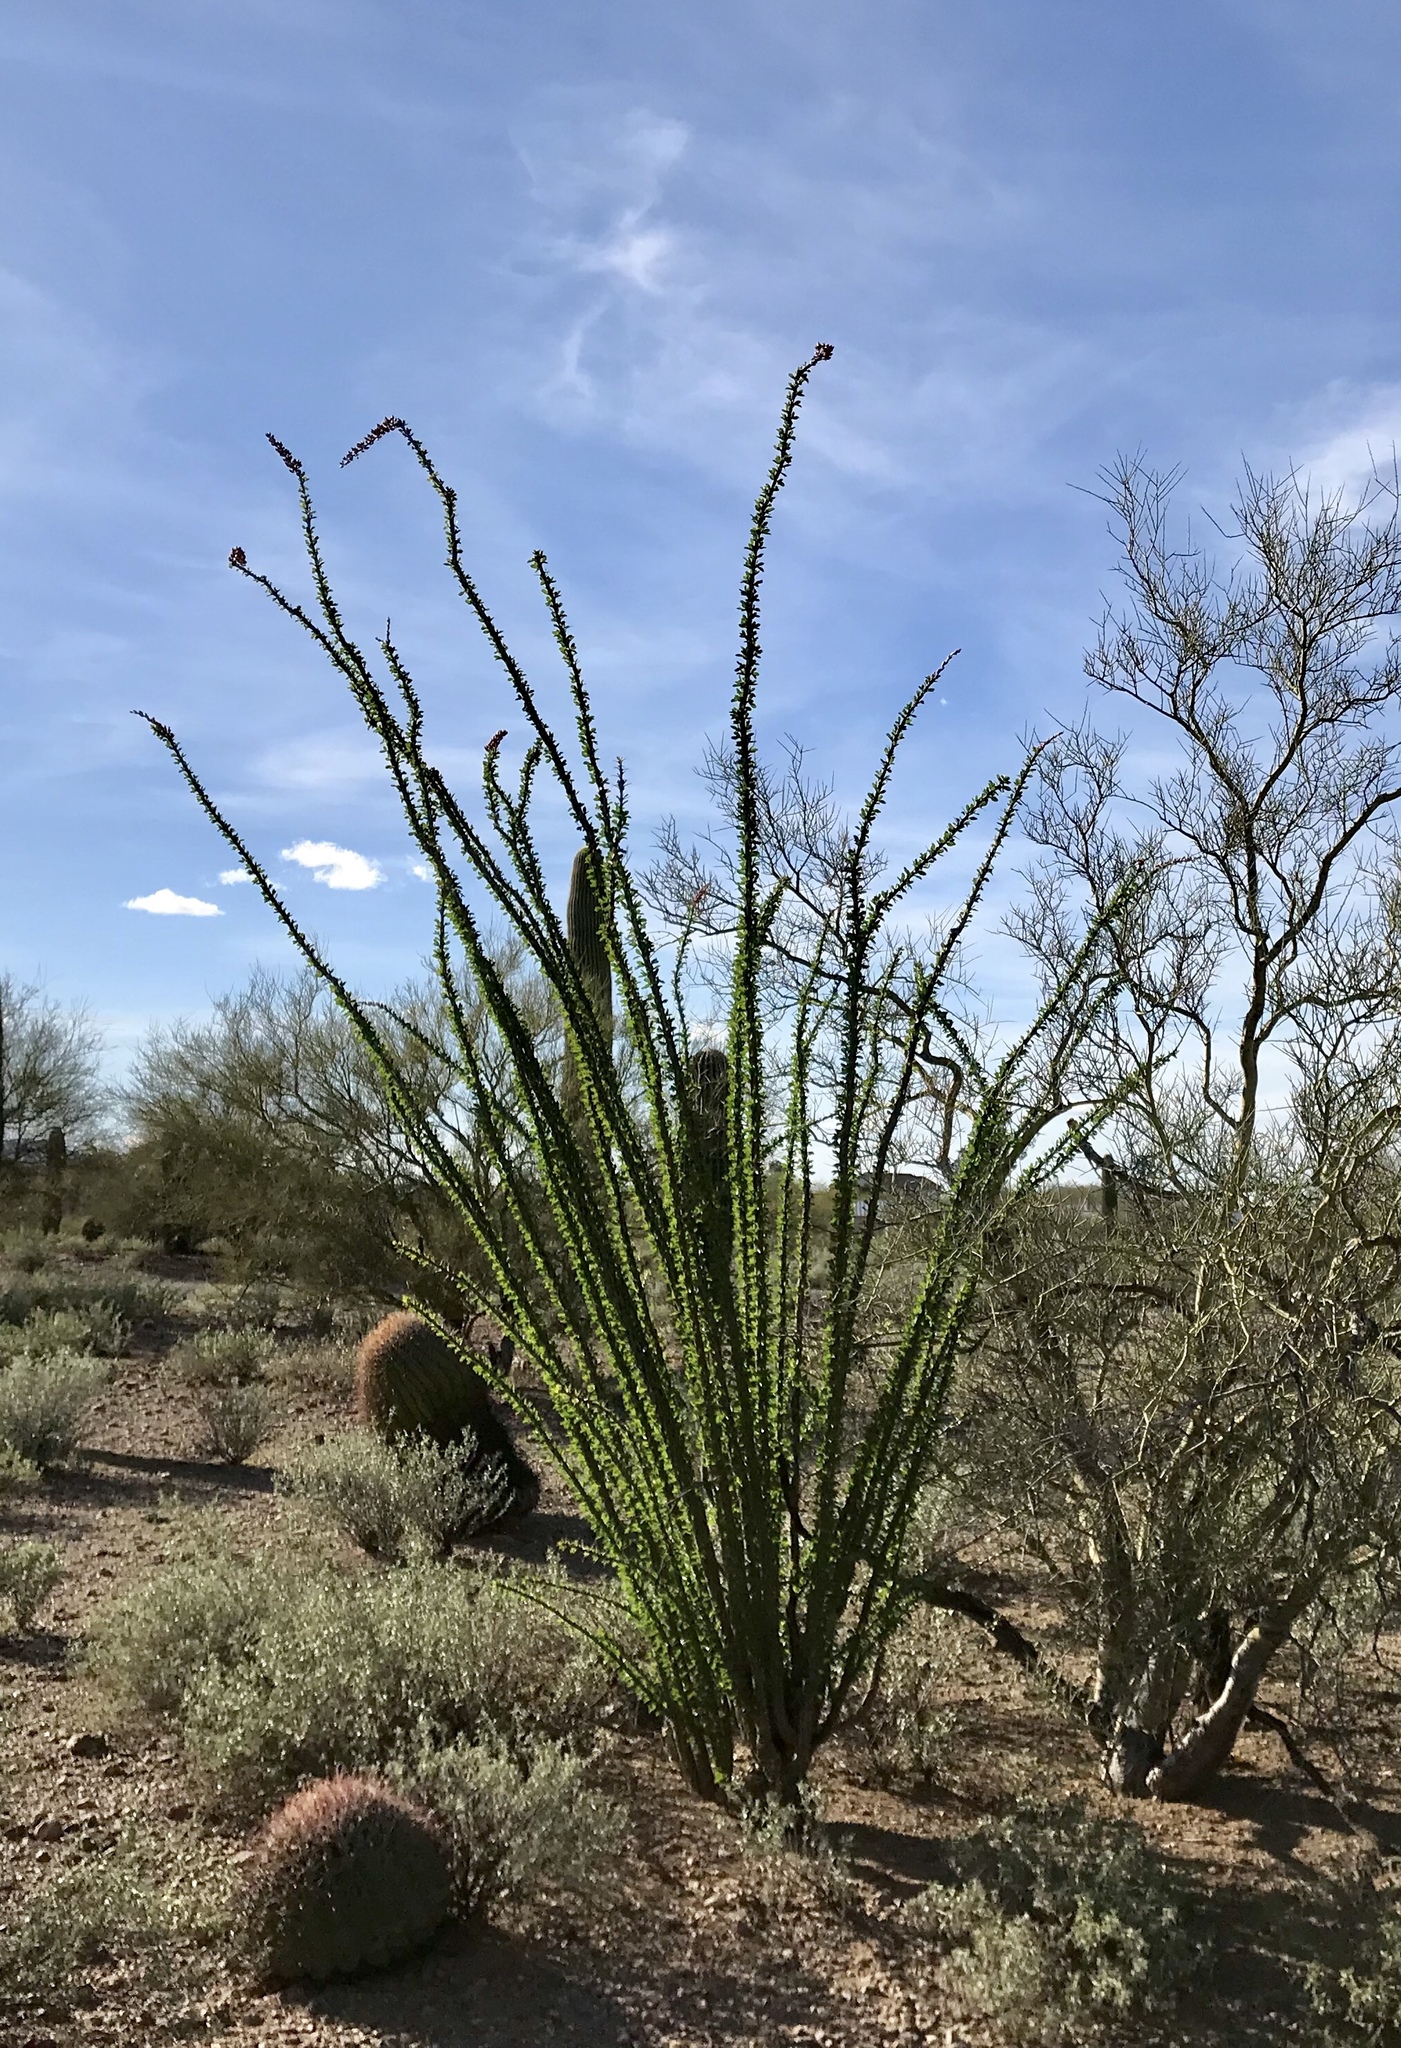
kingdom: Plantae
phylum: Tracheophyta
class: Magnoliopsida
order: Ericales
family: Fouquieriaceae
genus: Fouquieria
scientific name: Fouquieria splendens
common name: Vine-cactus
